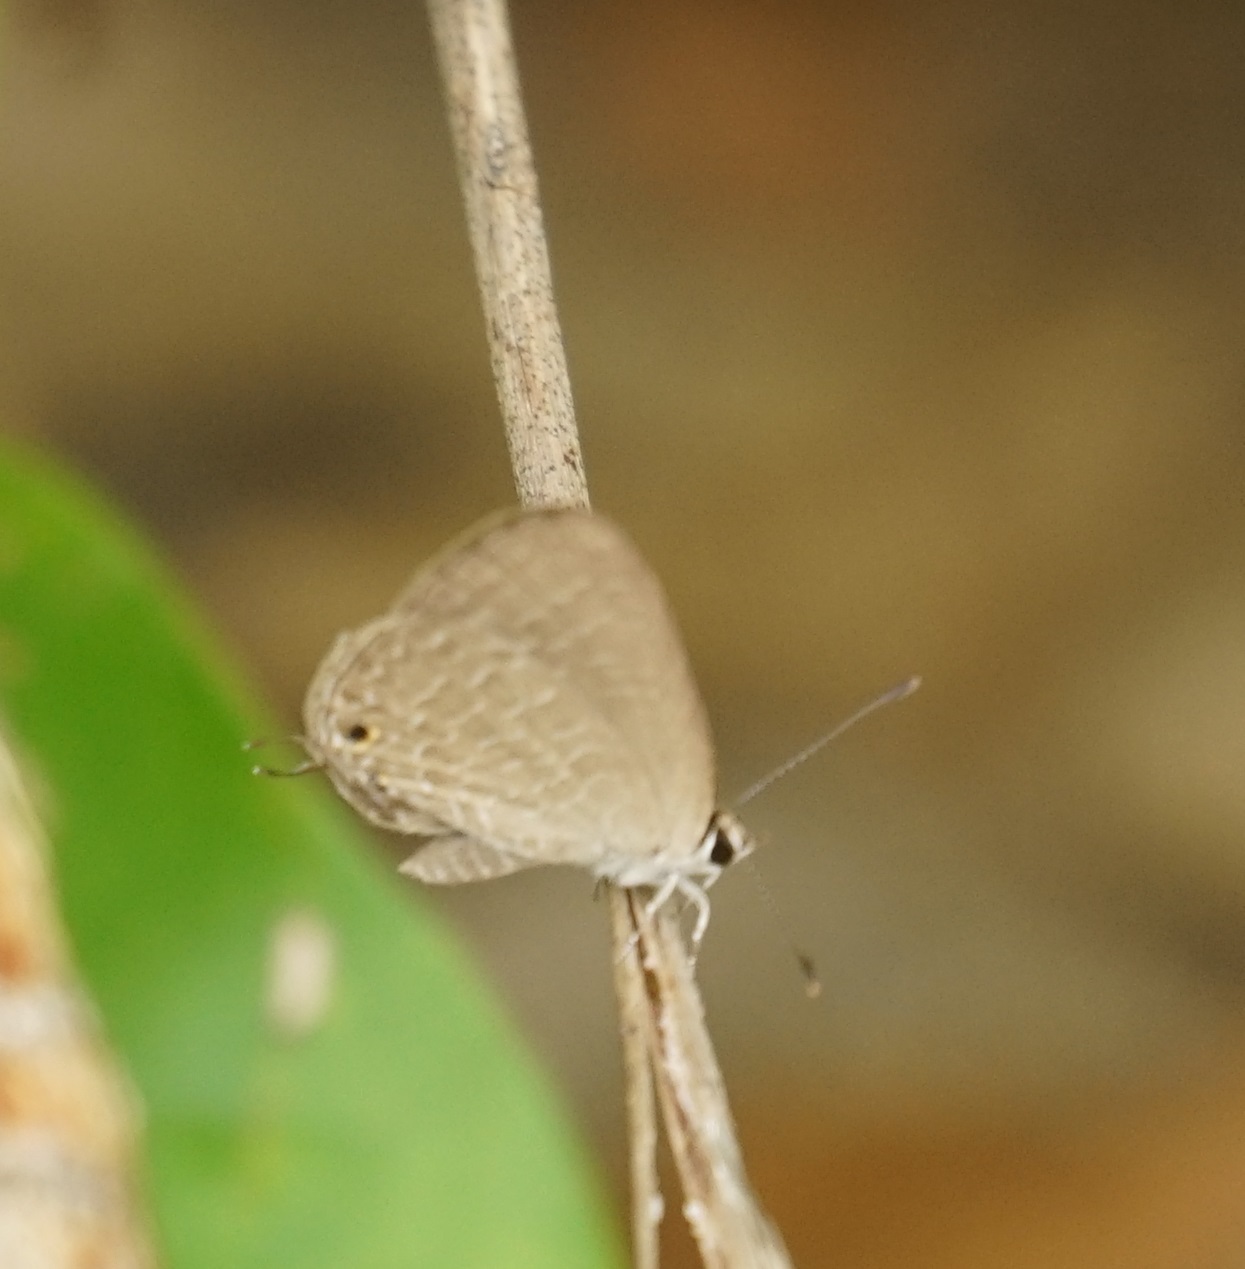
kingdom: Animalia
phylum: Arthropoda
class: Insecta
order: Lepidoptera
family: Lycaenidae
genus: Jamides
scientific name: Jamides phaseli
